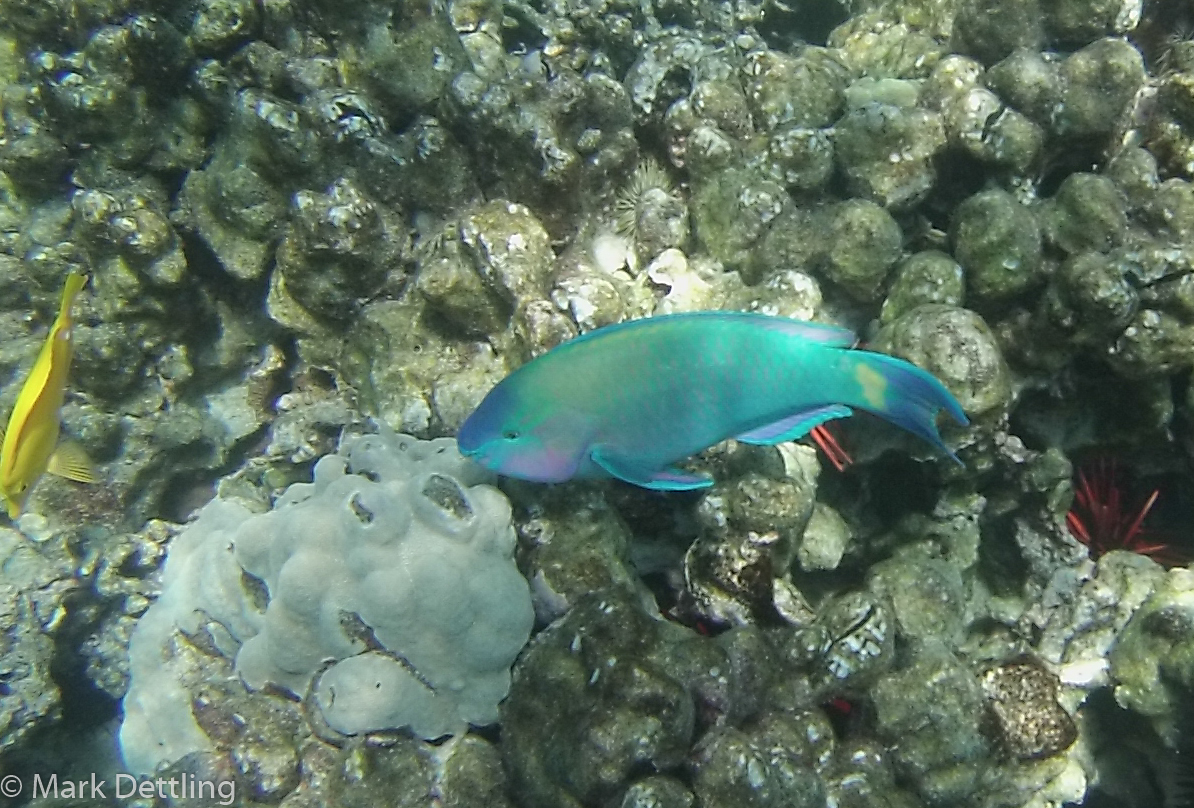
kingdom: Animalia
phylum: Chordata
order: Perciformes
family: Scaridae
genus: Scarus
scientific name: Scarus psittacus
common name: Palenose parrotfish
